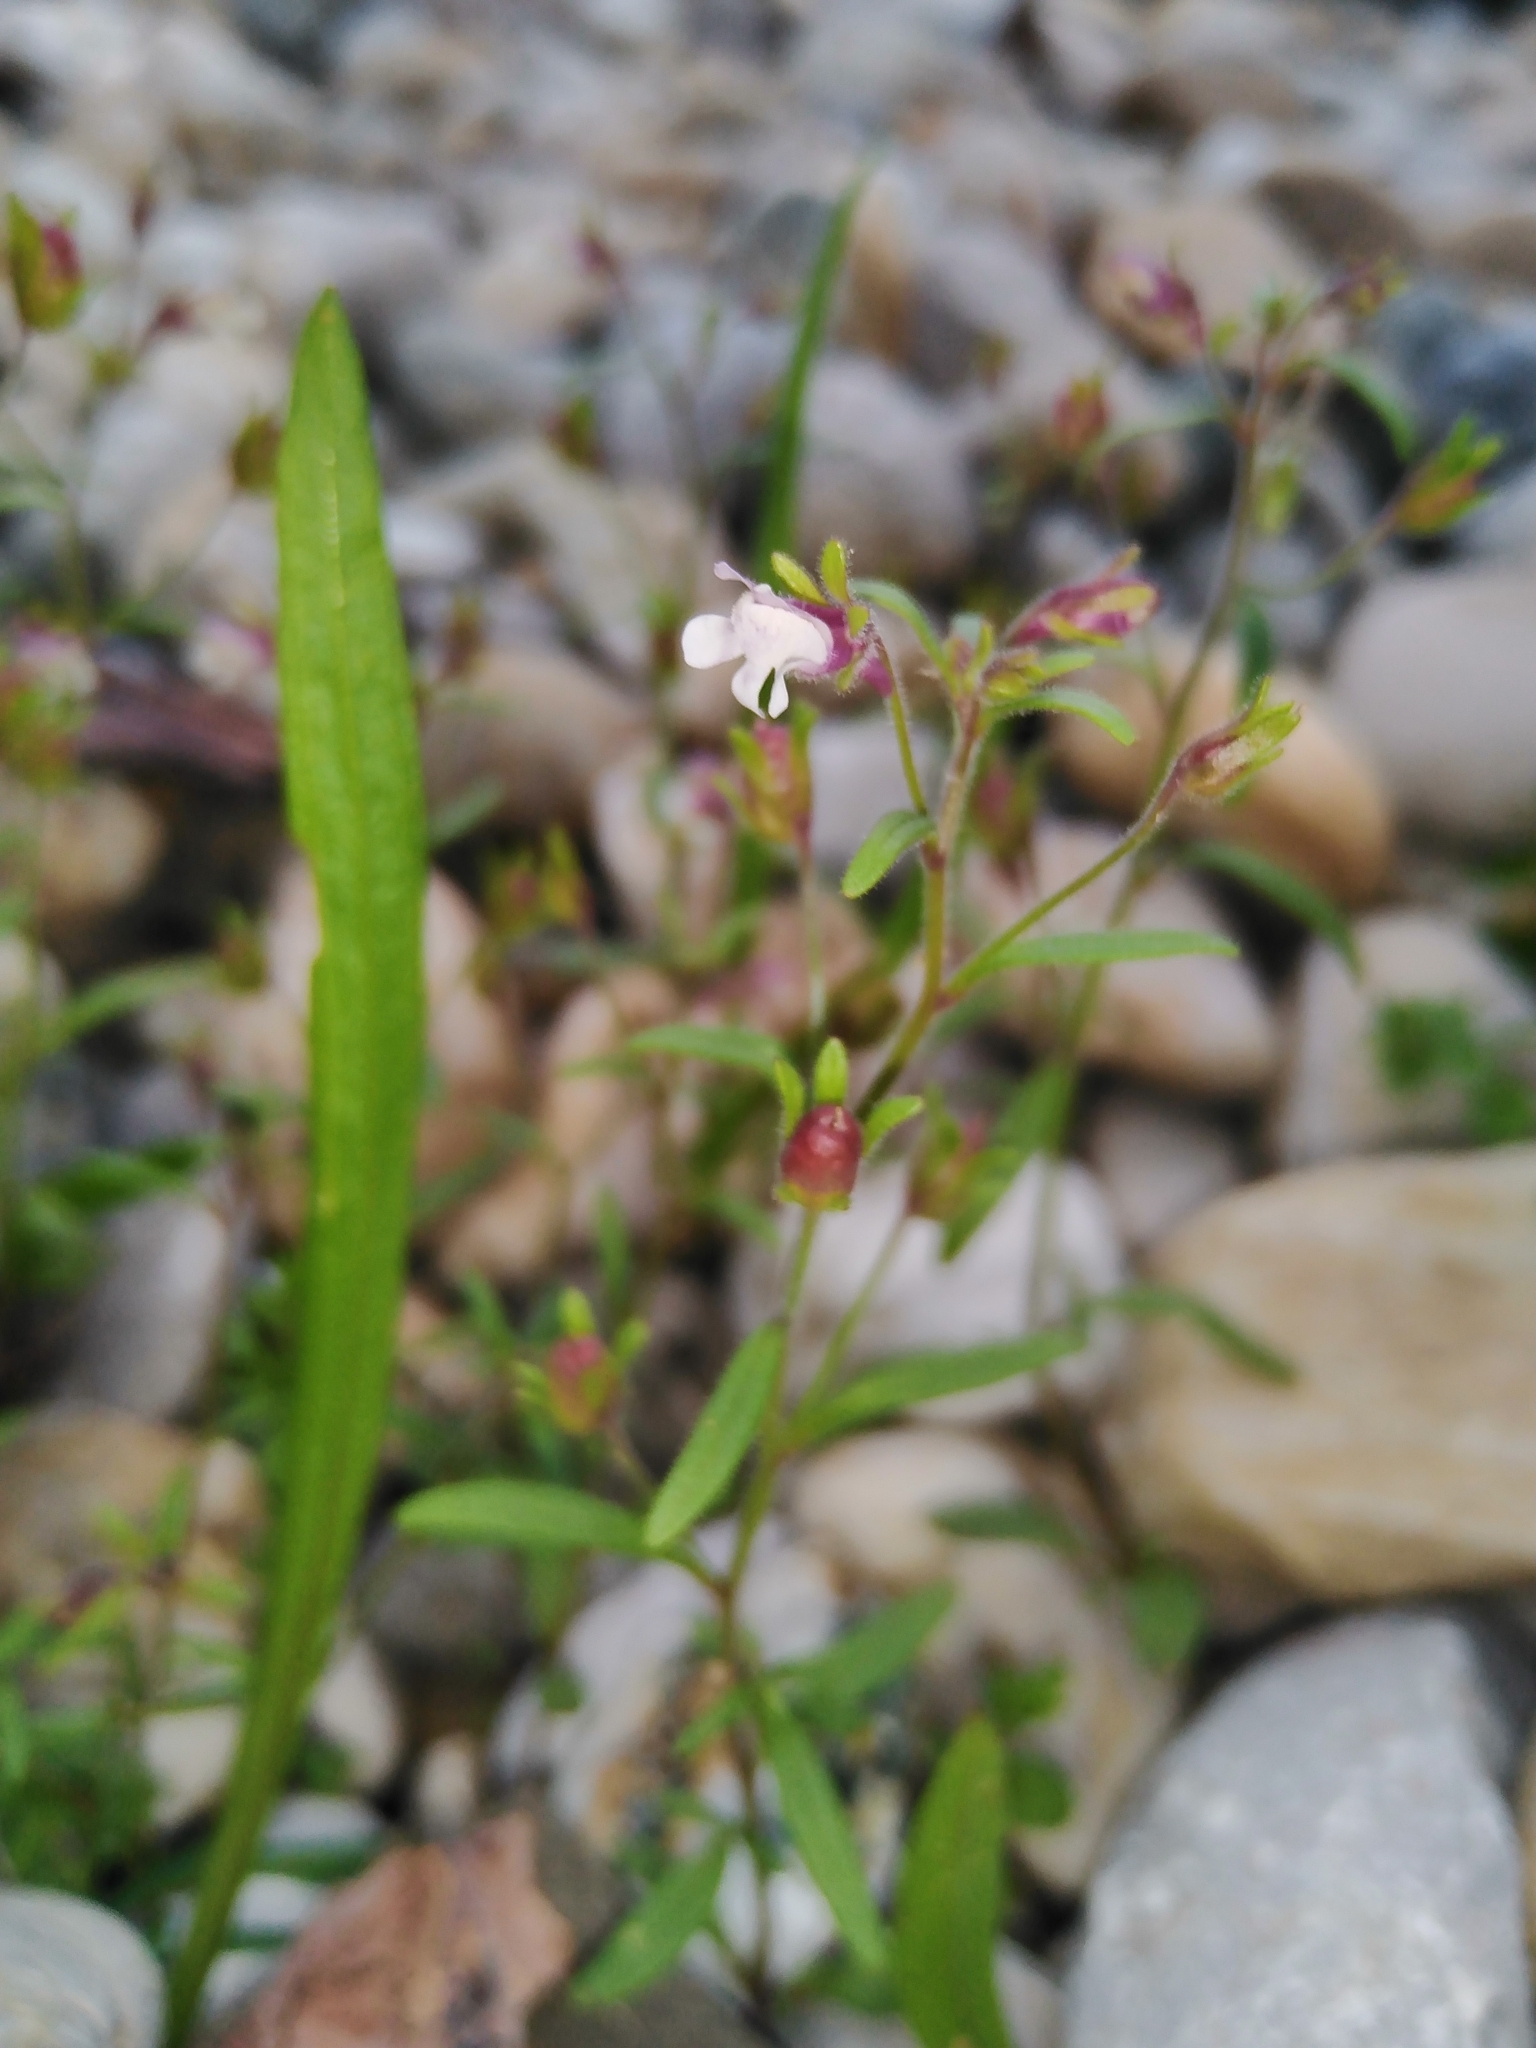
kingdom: Plantae
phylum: Tracheophyta
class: Magnoliopsida
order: Lamiales
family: Plantaginaceae
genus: Chaenorhinum
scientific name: Chaenorhinum minus
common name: Dwarf snapdragon
